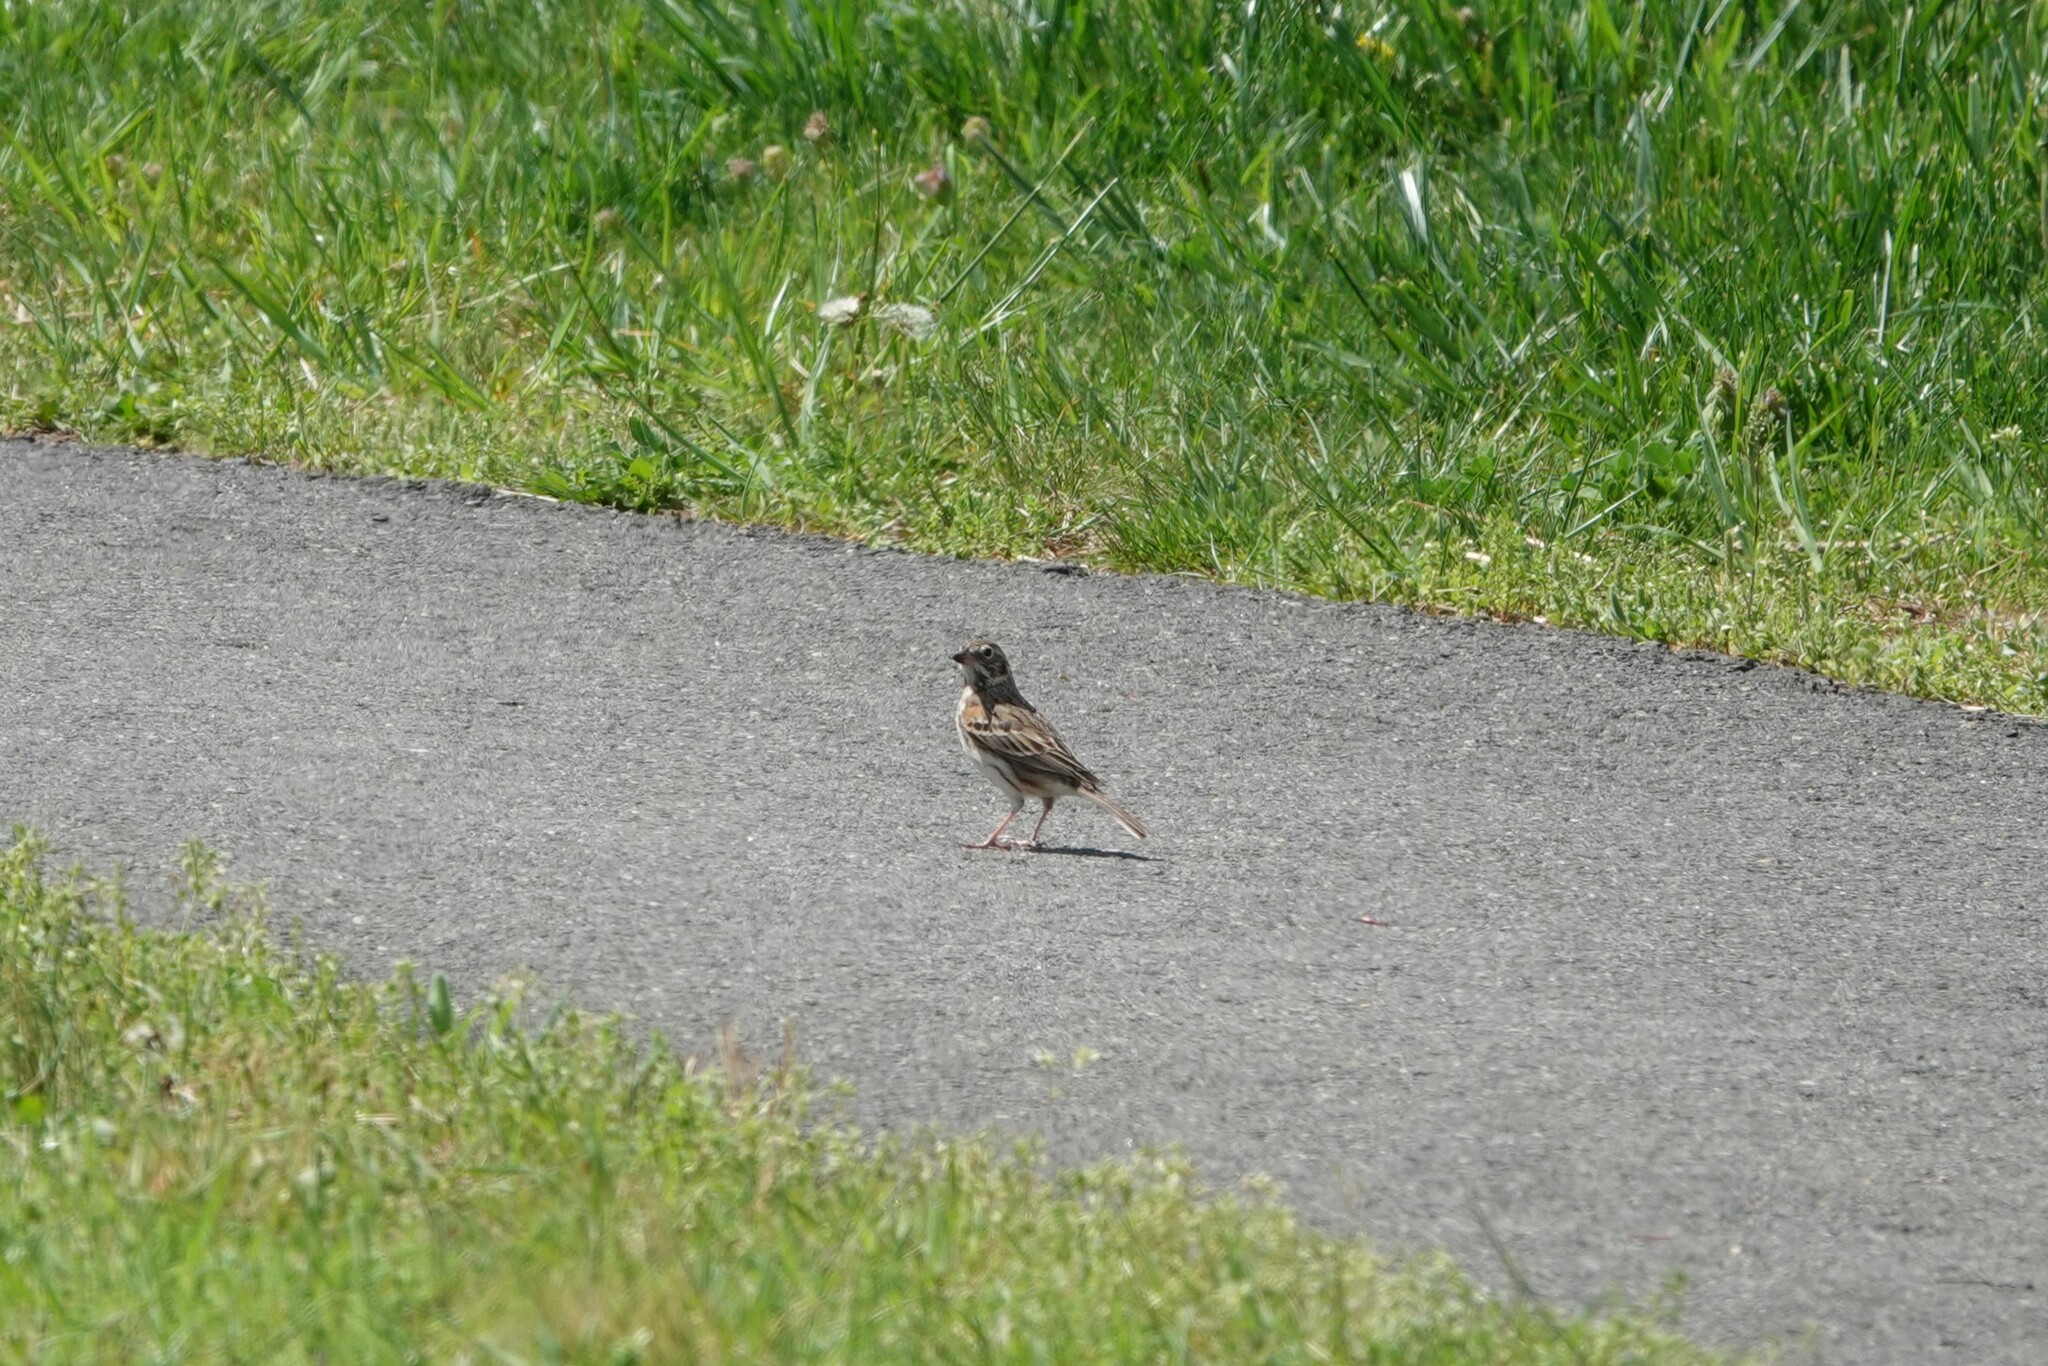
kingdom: Animalia
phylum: Chordata
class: Aves
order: Passeriformes
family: Passerellidae
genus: Pooecetes
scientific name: Pooecetes gramineus
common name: Vesper sparrow
